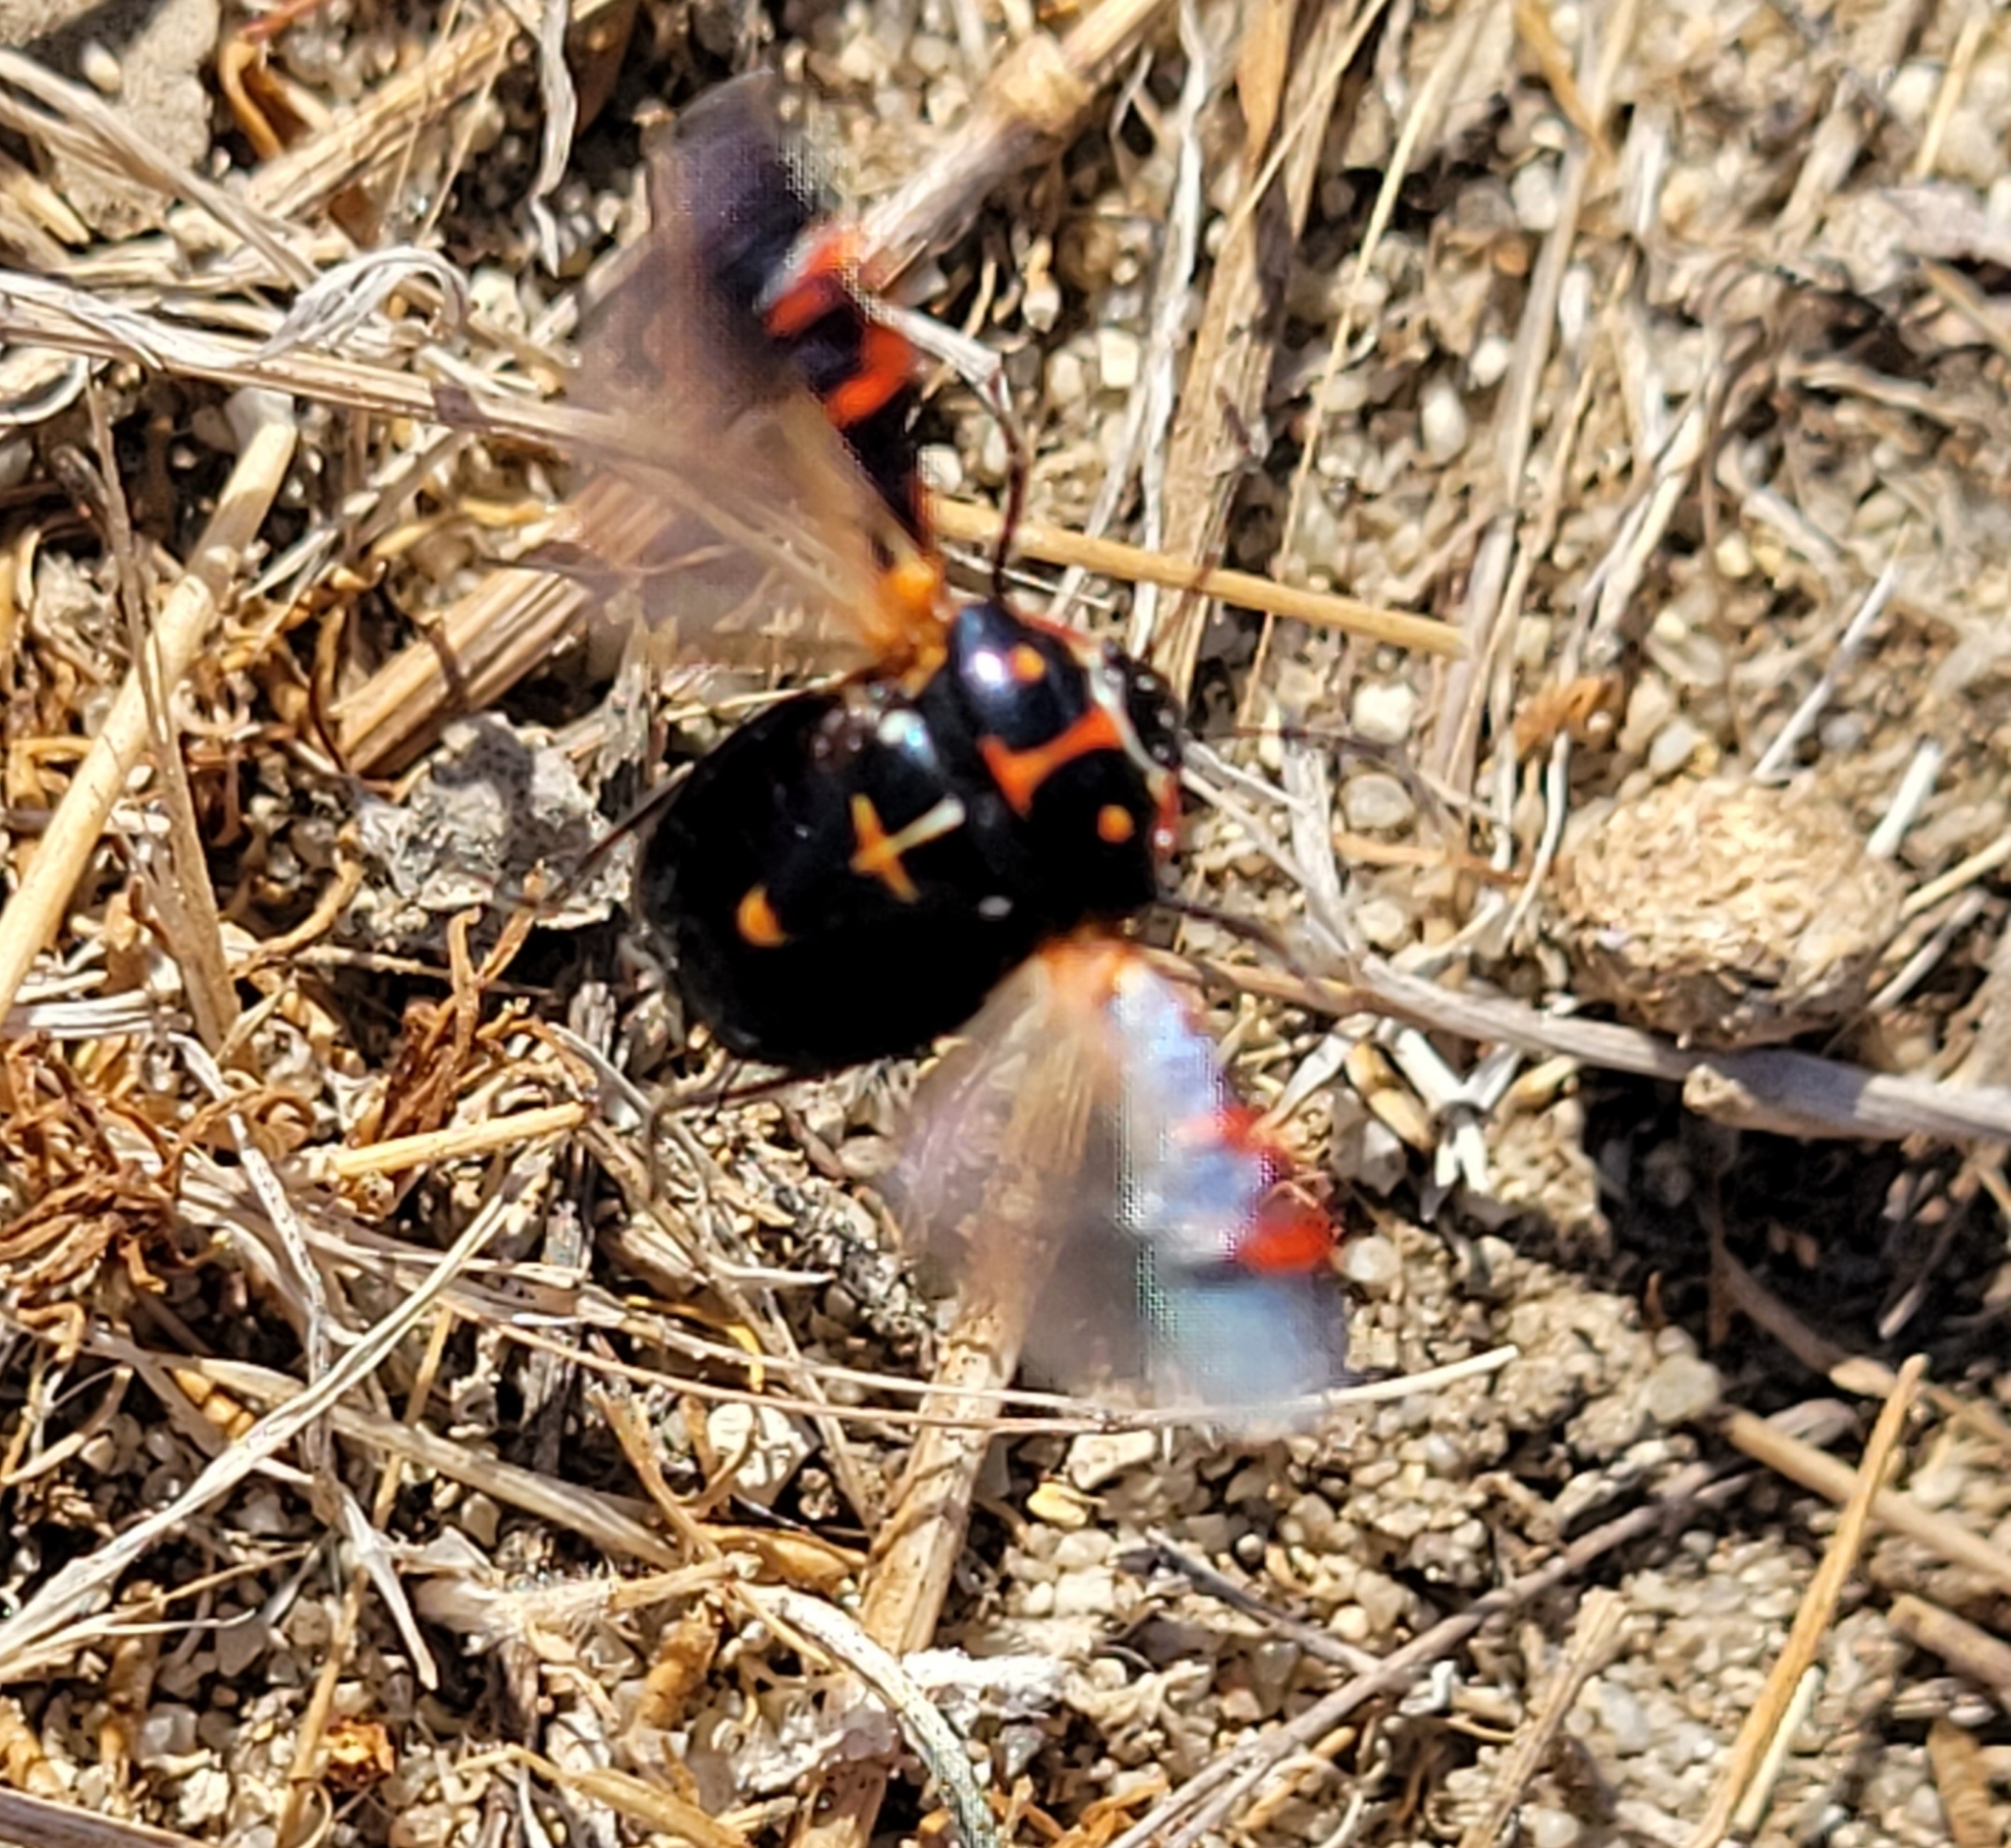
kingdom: Animalia
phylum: Arthropoda
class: Insecta
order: Hemiptera
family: Pentatomidae
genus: Murgantia
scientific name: Murgantia histrionica
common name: Harlequin bug
